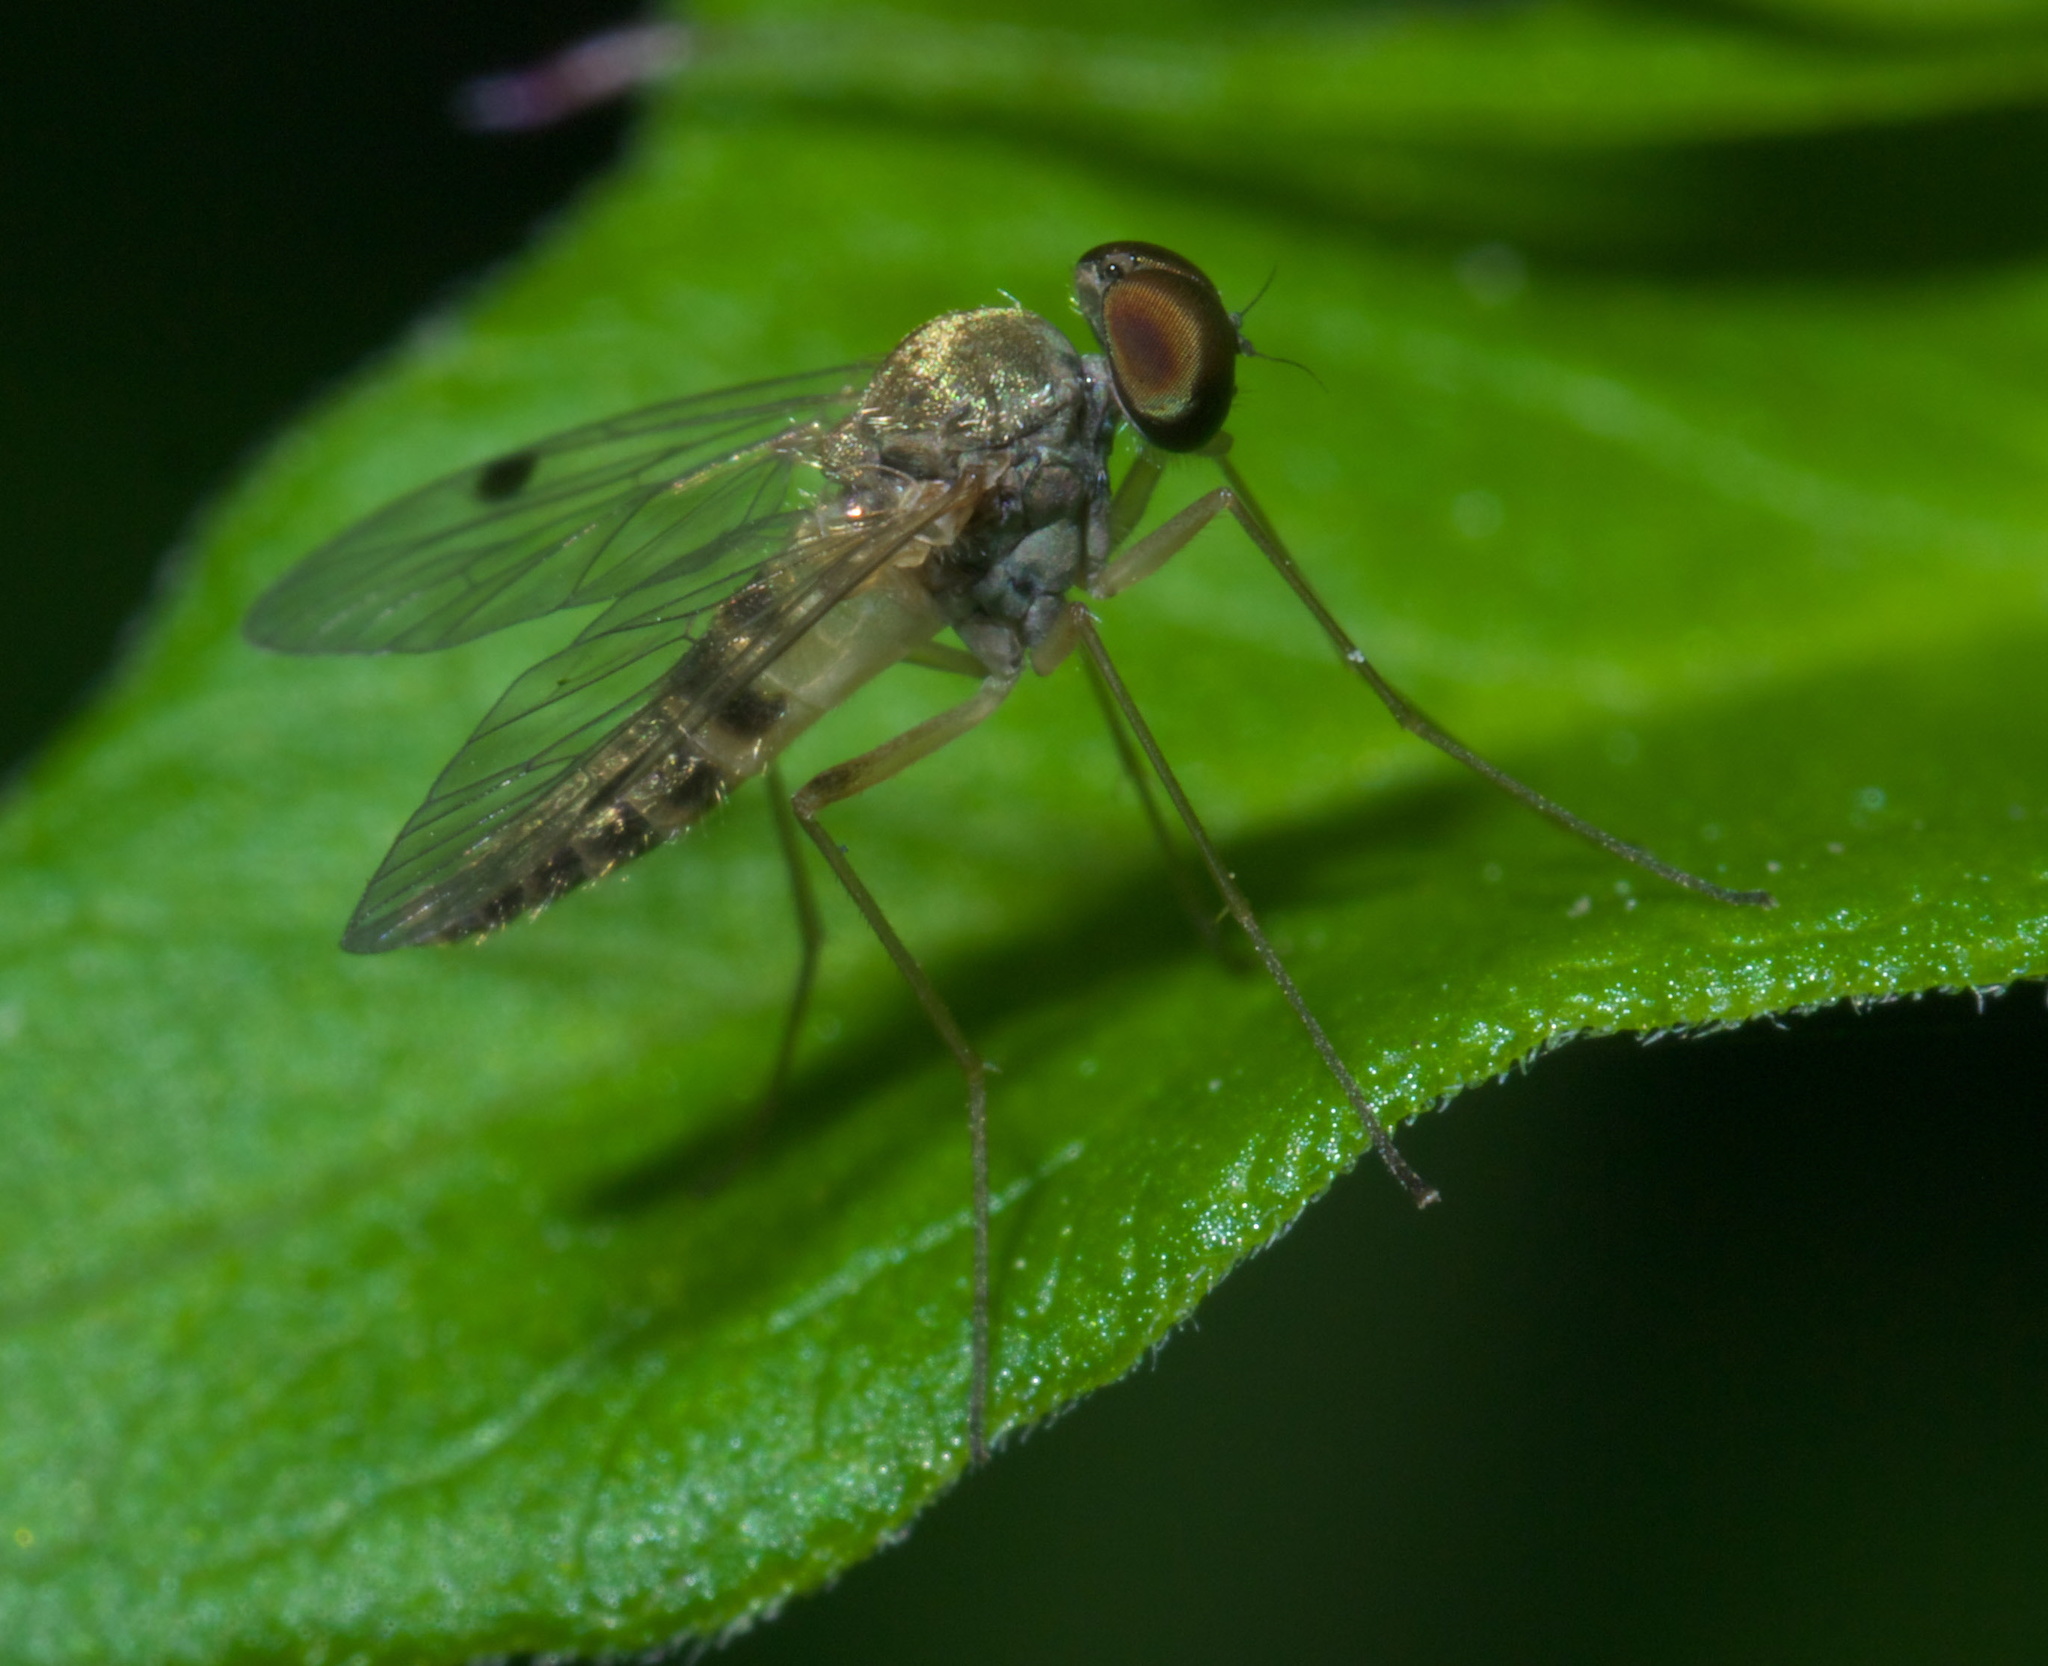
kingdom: Animalia
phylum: Arthropoda
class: Insecta
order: Diptera
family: Rhagionidae
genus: Chrysopilus
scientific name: Chrysopilus modestus
